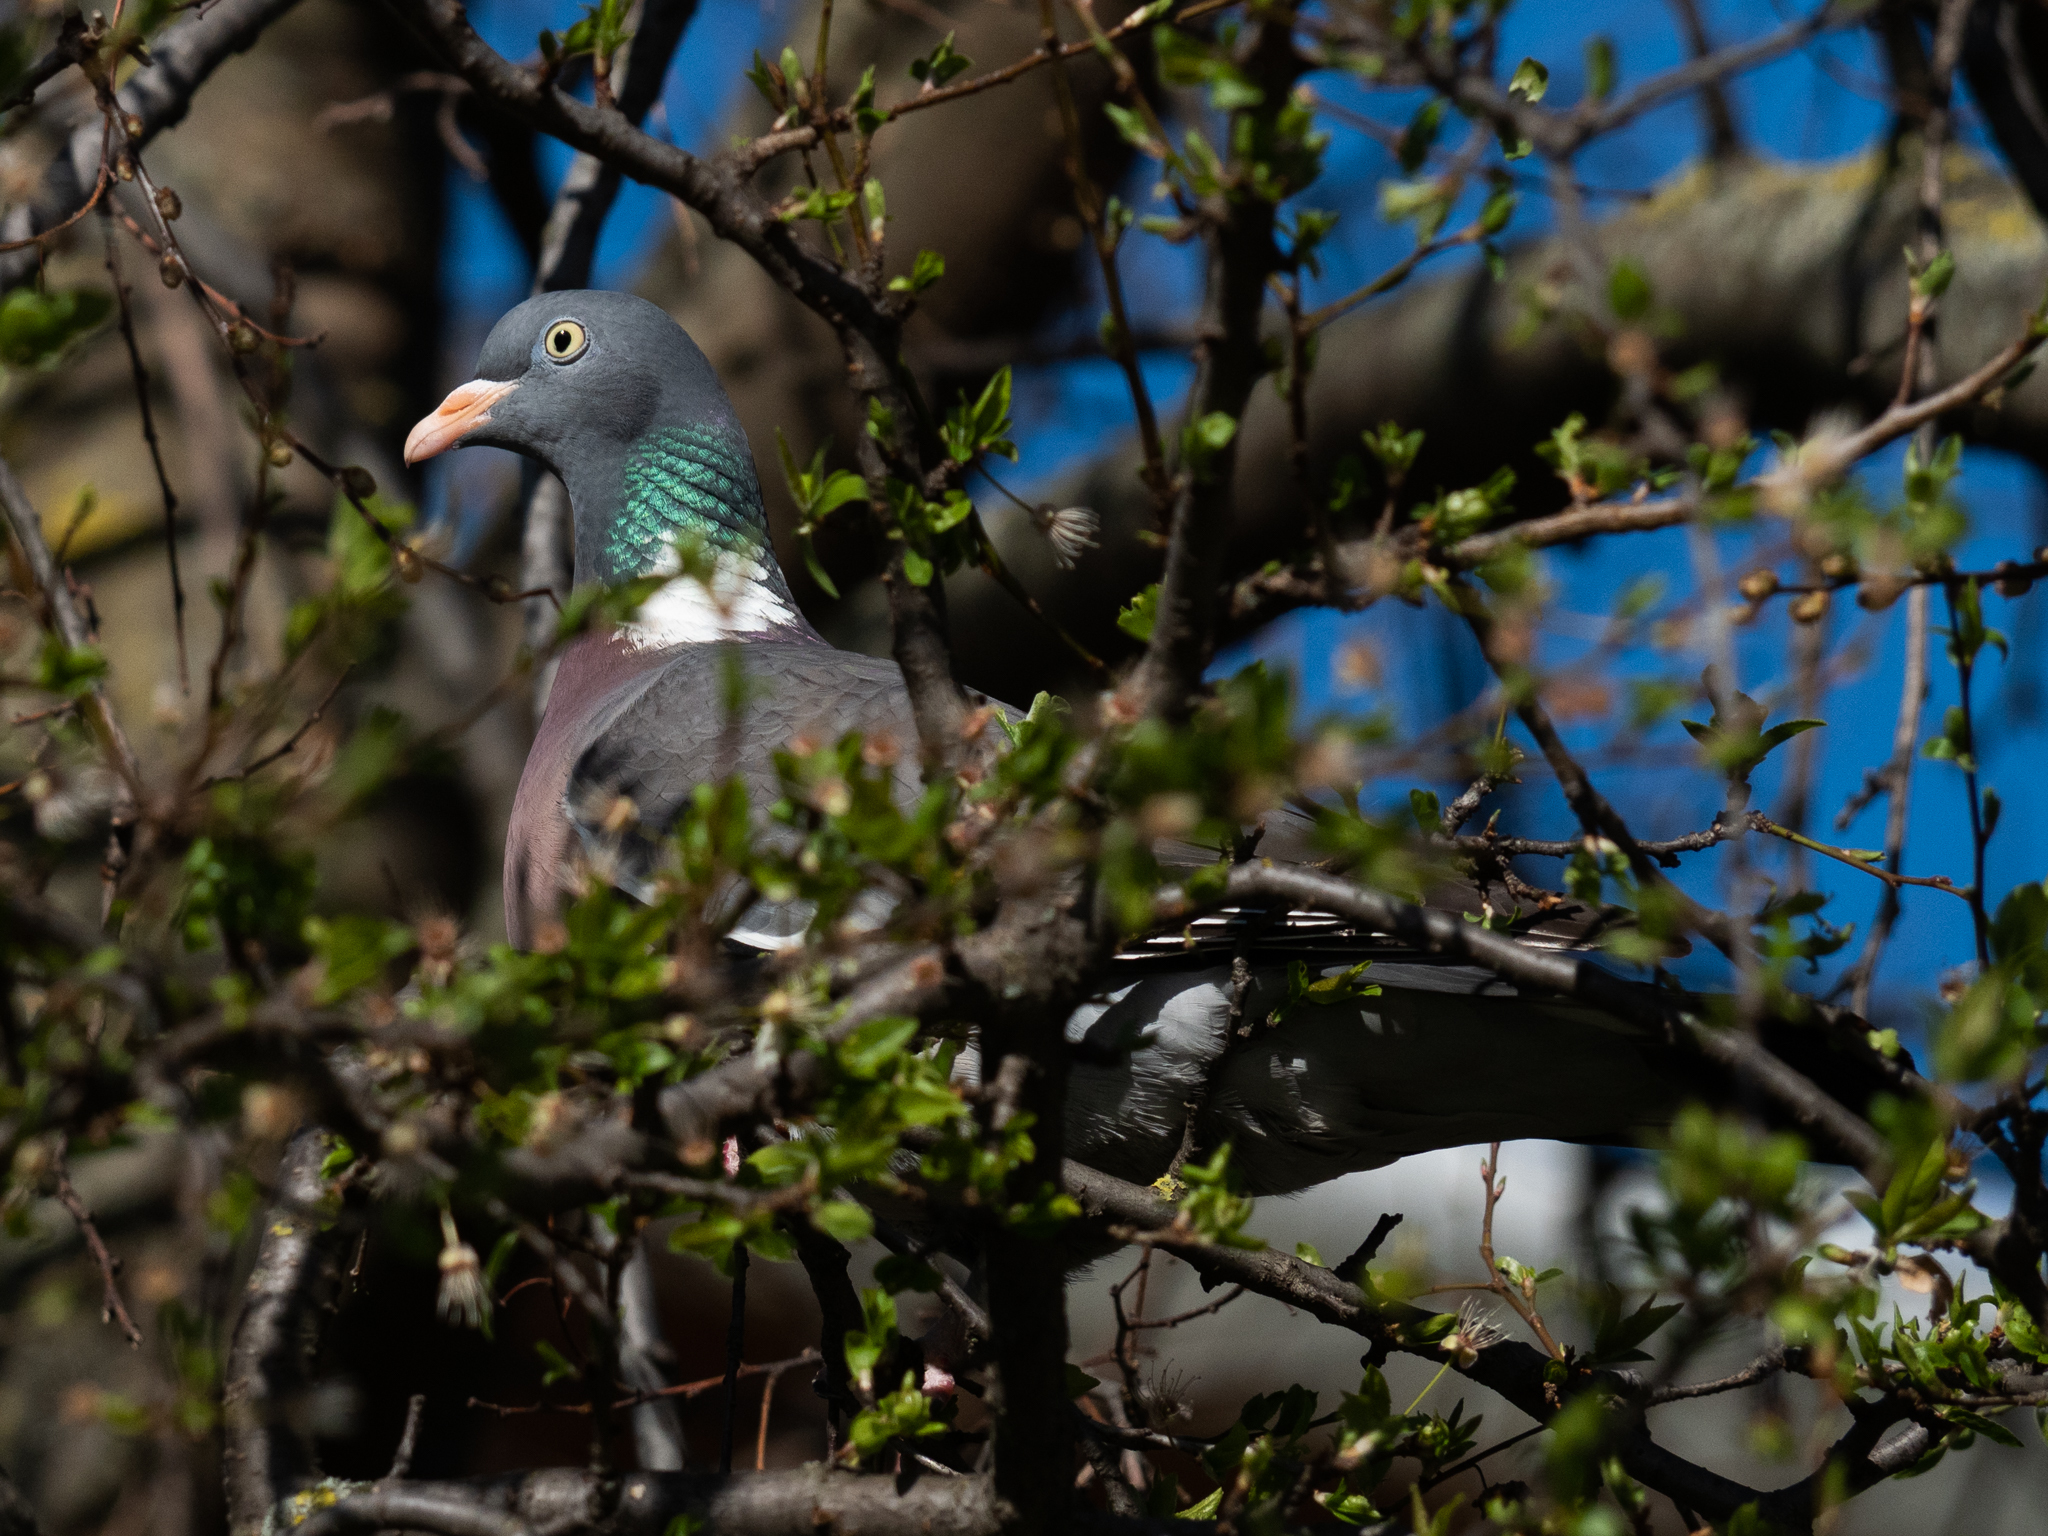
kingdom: Animalia
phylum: Chordata
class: Aves
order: Columbiformes
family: Columbidae
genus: Columba
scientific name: Columba palumbus
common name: Common wood pigeon
